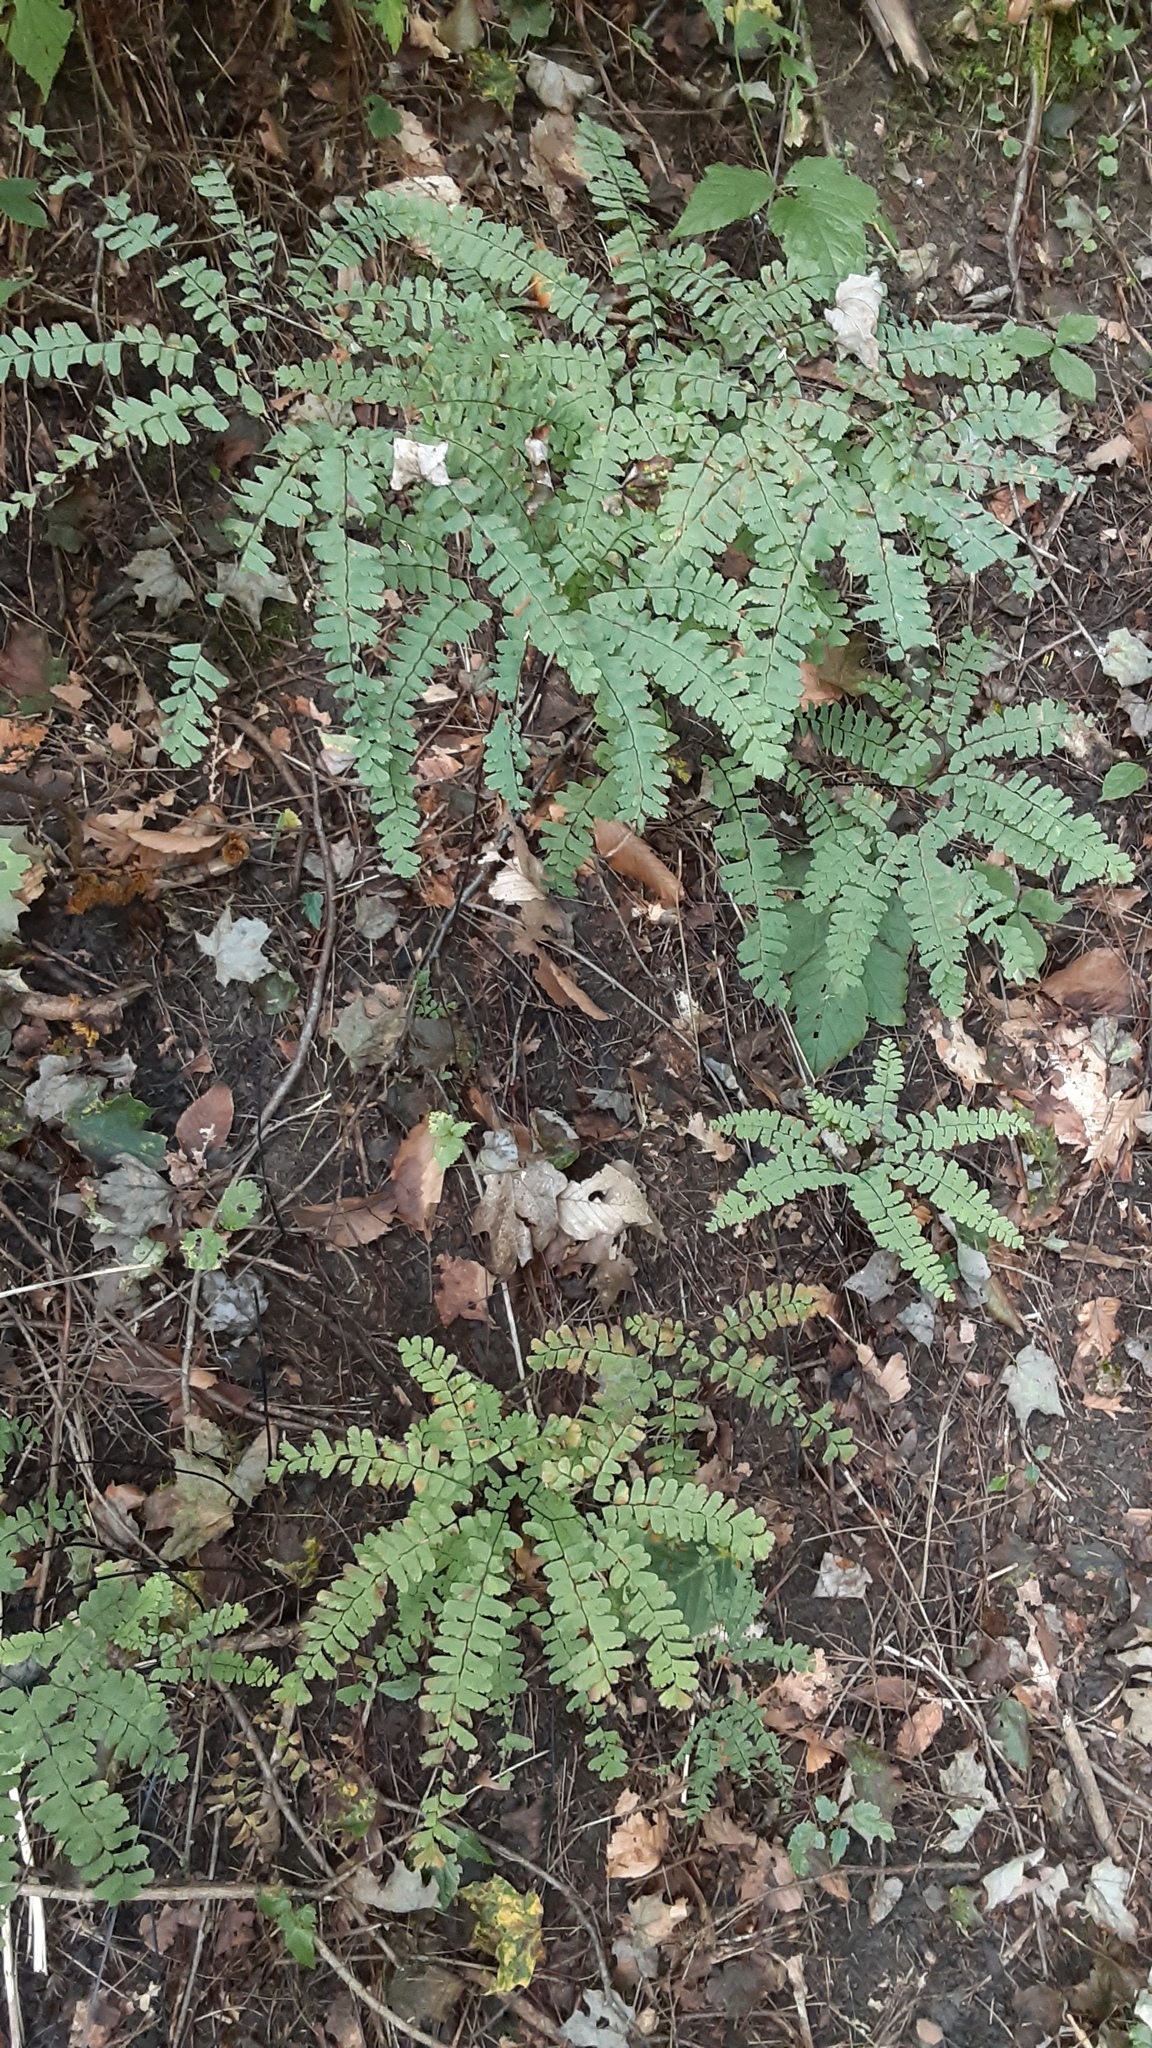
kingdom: Plantae
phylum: Tracheophyta
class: Polypodiopsida
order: Polypodiales
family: Pteridaceae
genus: Adiantum
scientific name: Adiantum pedatum
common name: Five-finger fern
